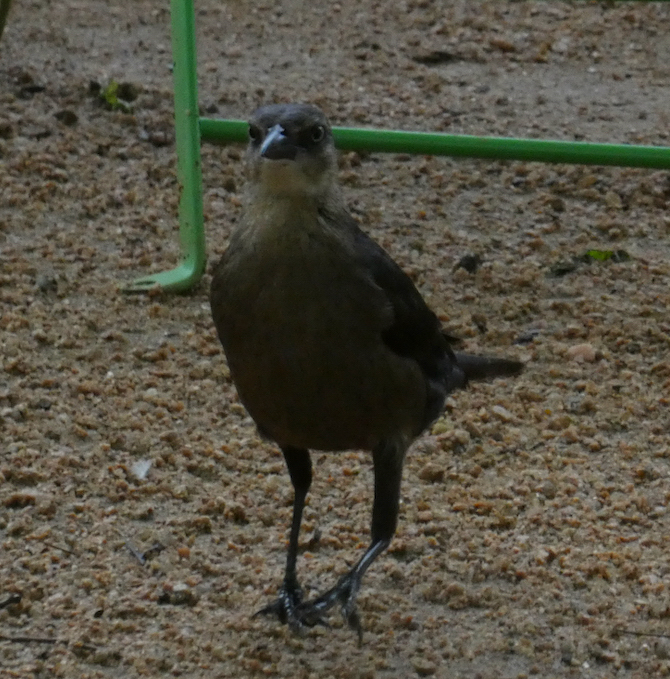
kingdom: Animalia
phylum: Chordata
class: Aves
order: Passeriformes
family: Icteridae
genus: Quiscalus
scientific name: Quiscalus mexicanus
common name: Great-tailed grackle
